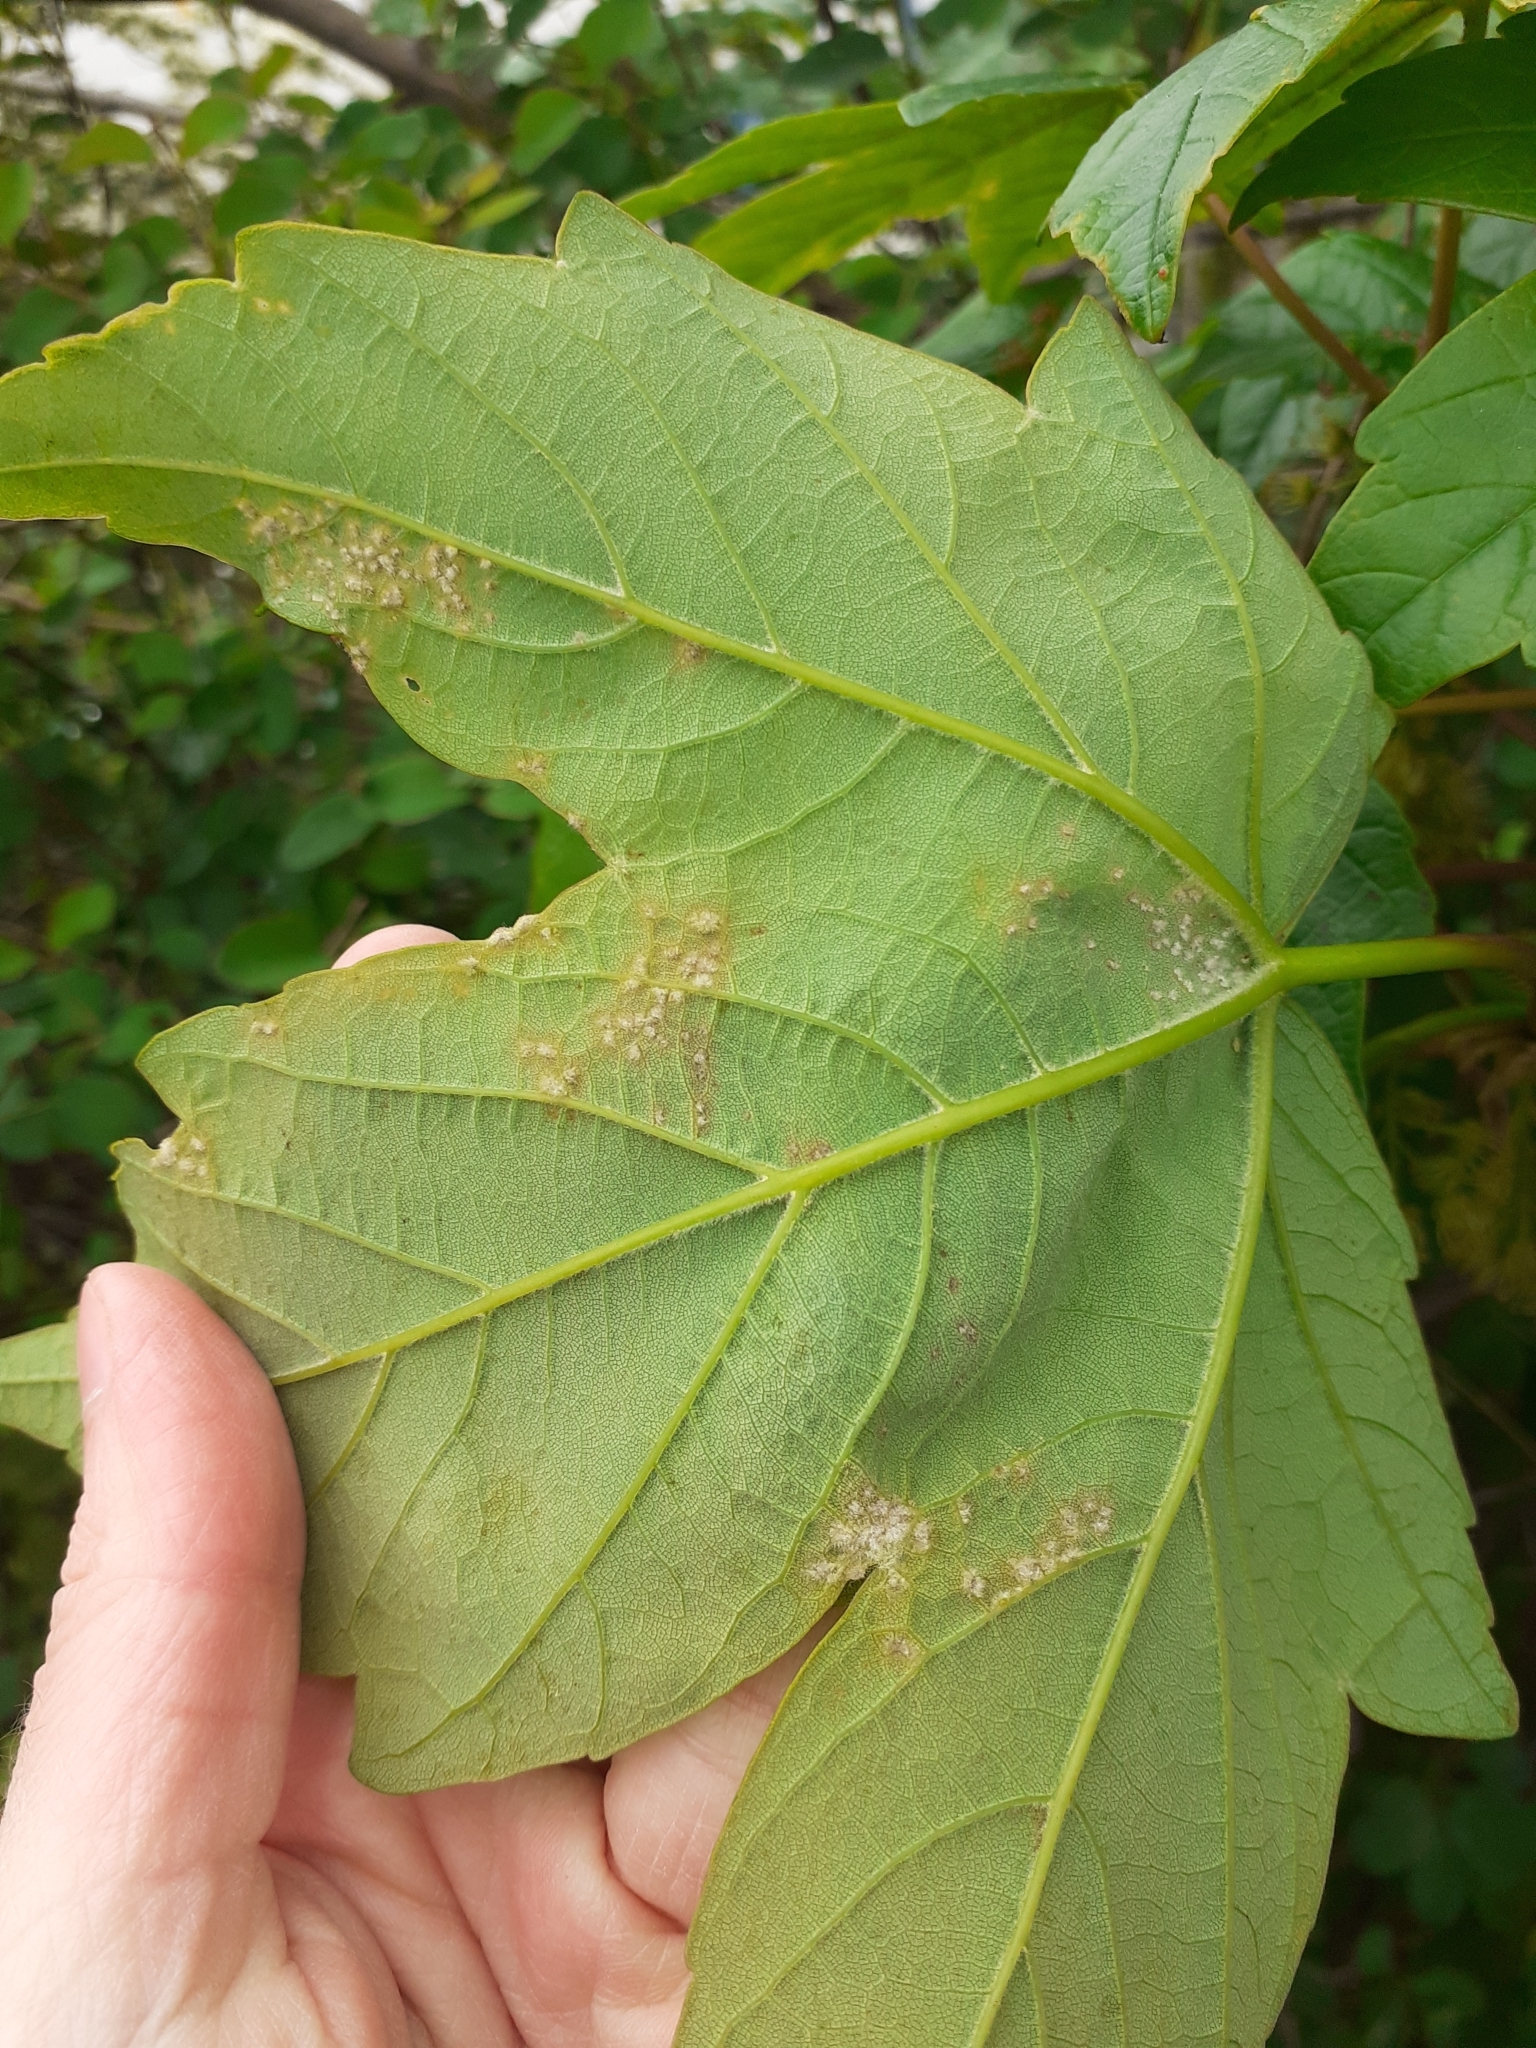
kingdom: Animalia
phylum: Arthropoda
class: Arachnida
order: Trombidiformes
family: Eriophyidae
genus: Aceria
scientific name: Aceria cephaloneus
